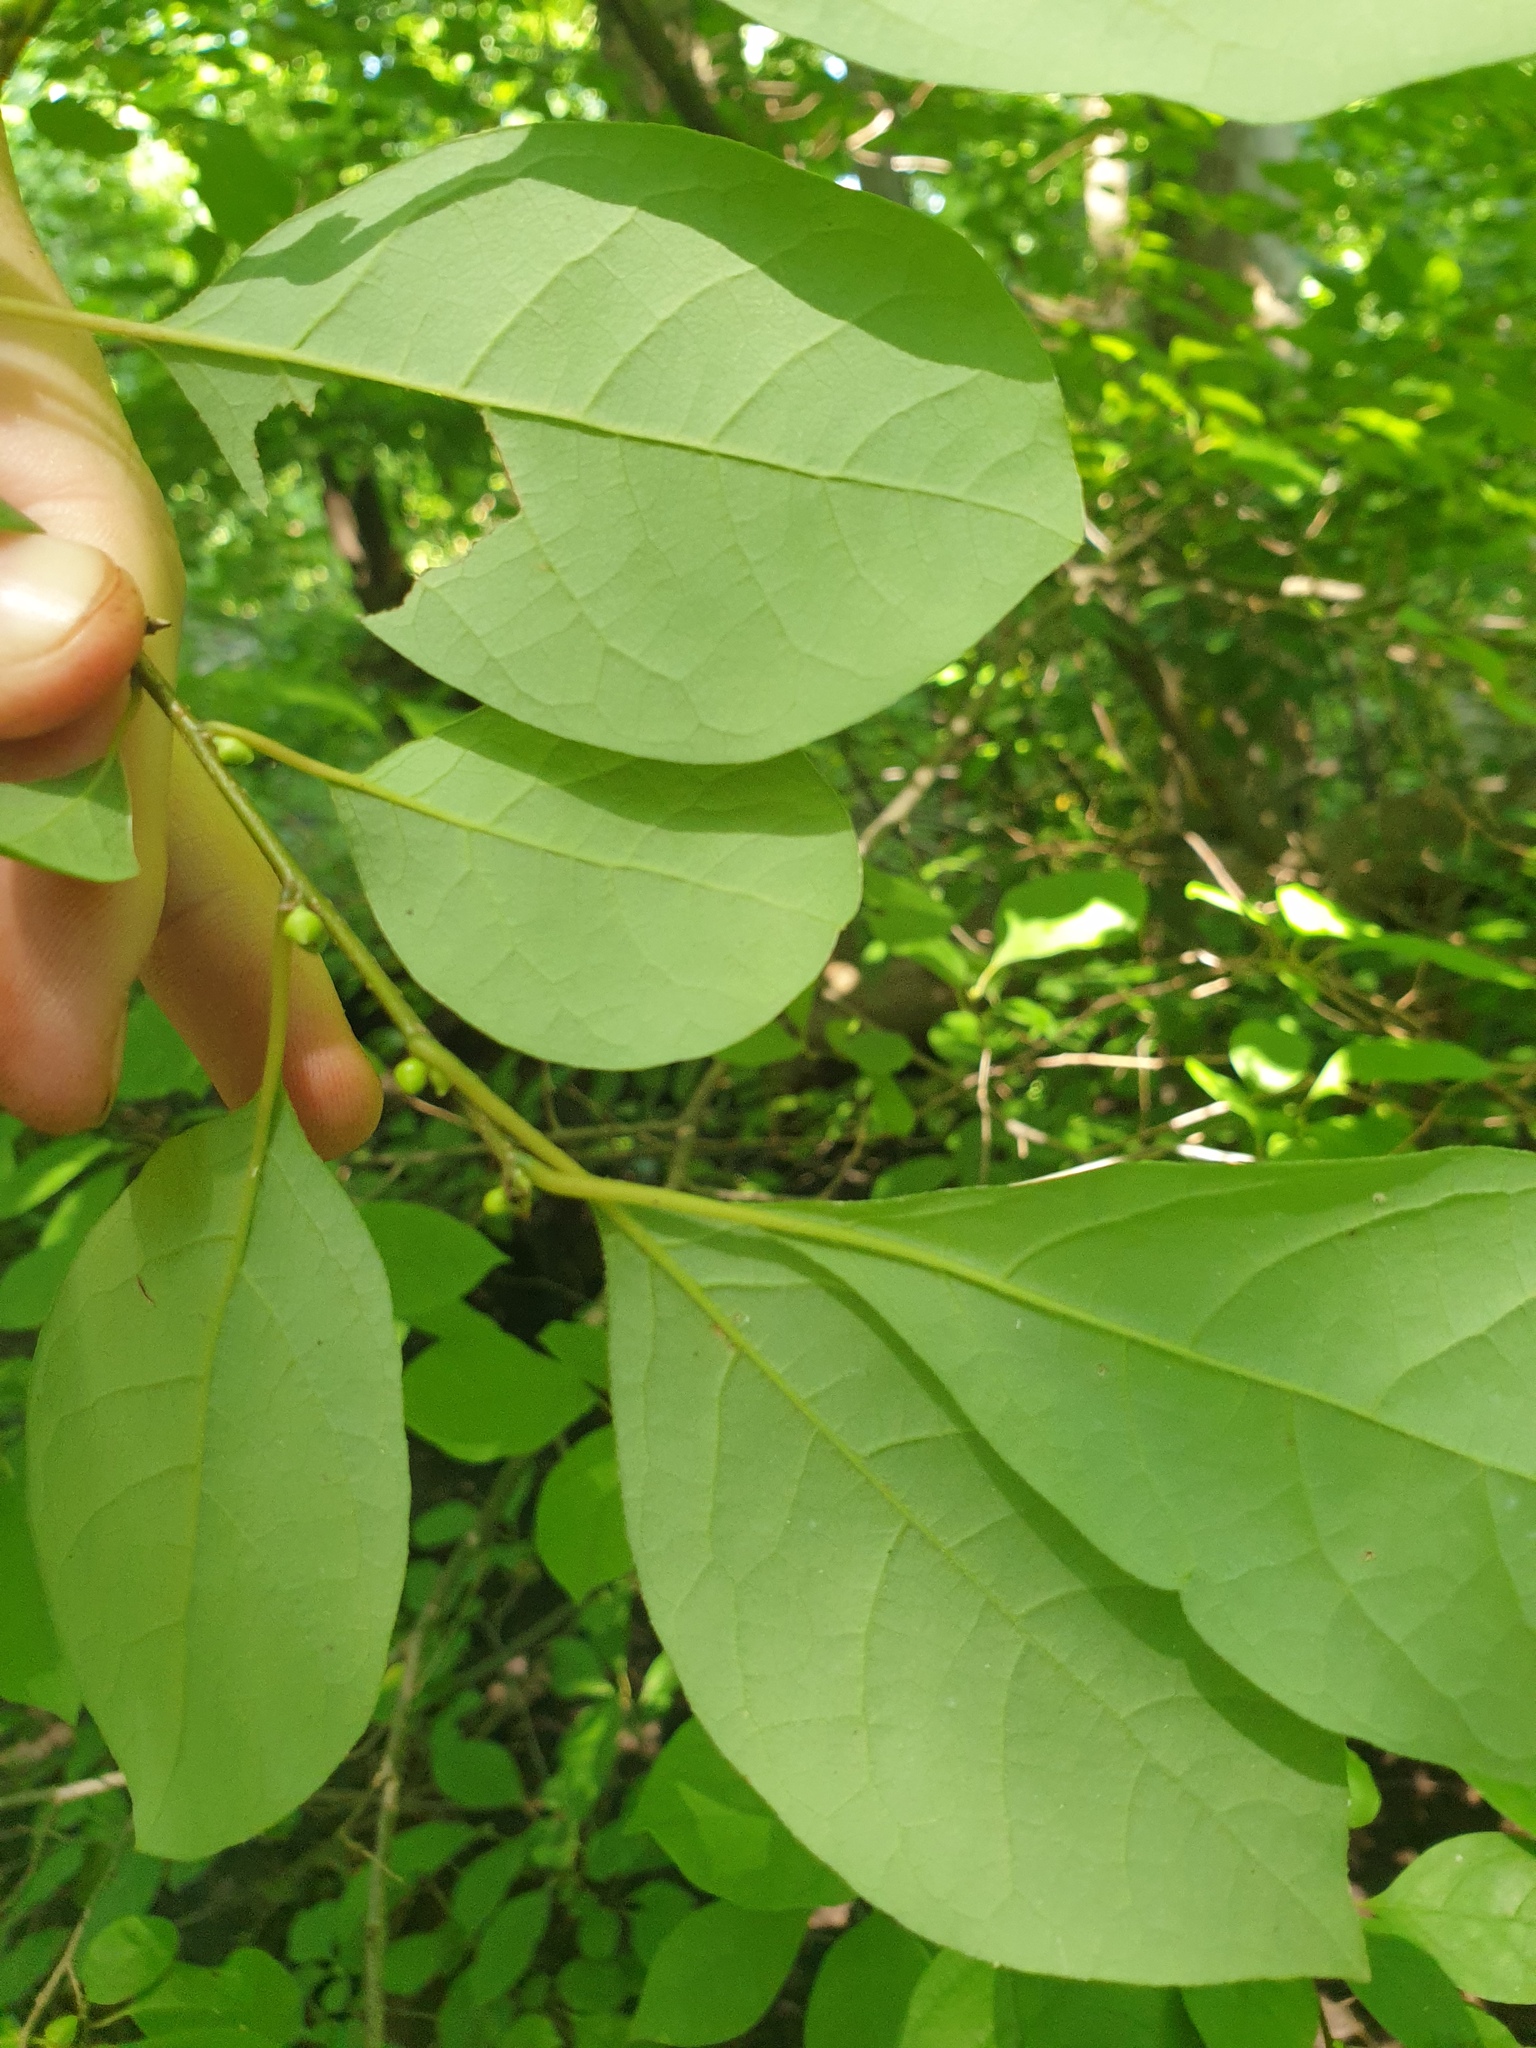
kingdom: Plantae
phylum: Tracheophyta
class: Magnoliopsida
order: Laurales
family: Lauraceae
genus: Lindera
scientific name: Lindera benzoin
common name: Spicebush
